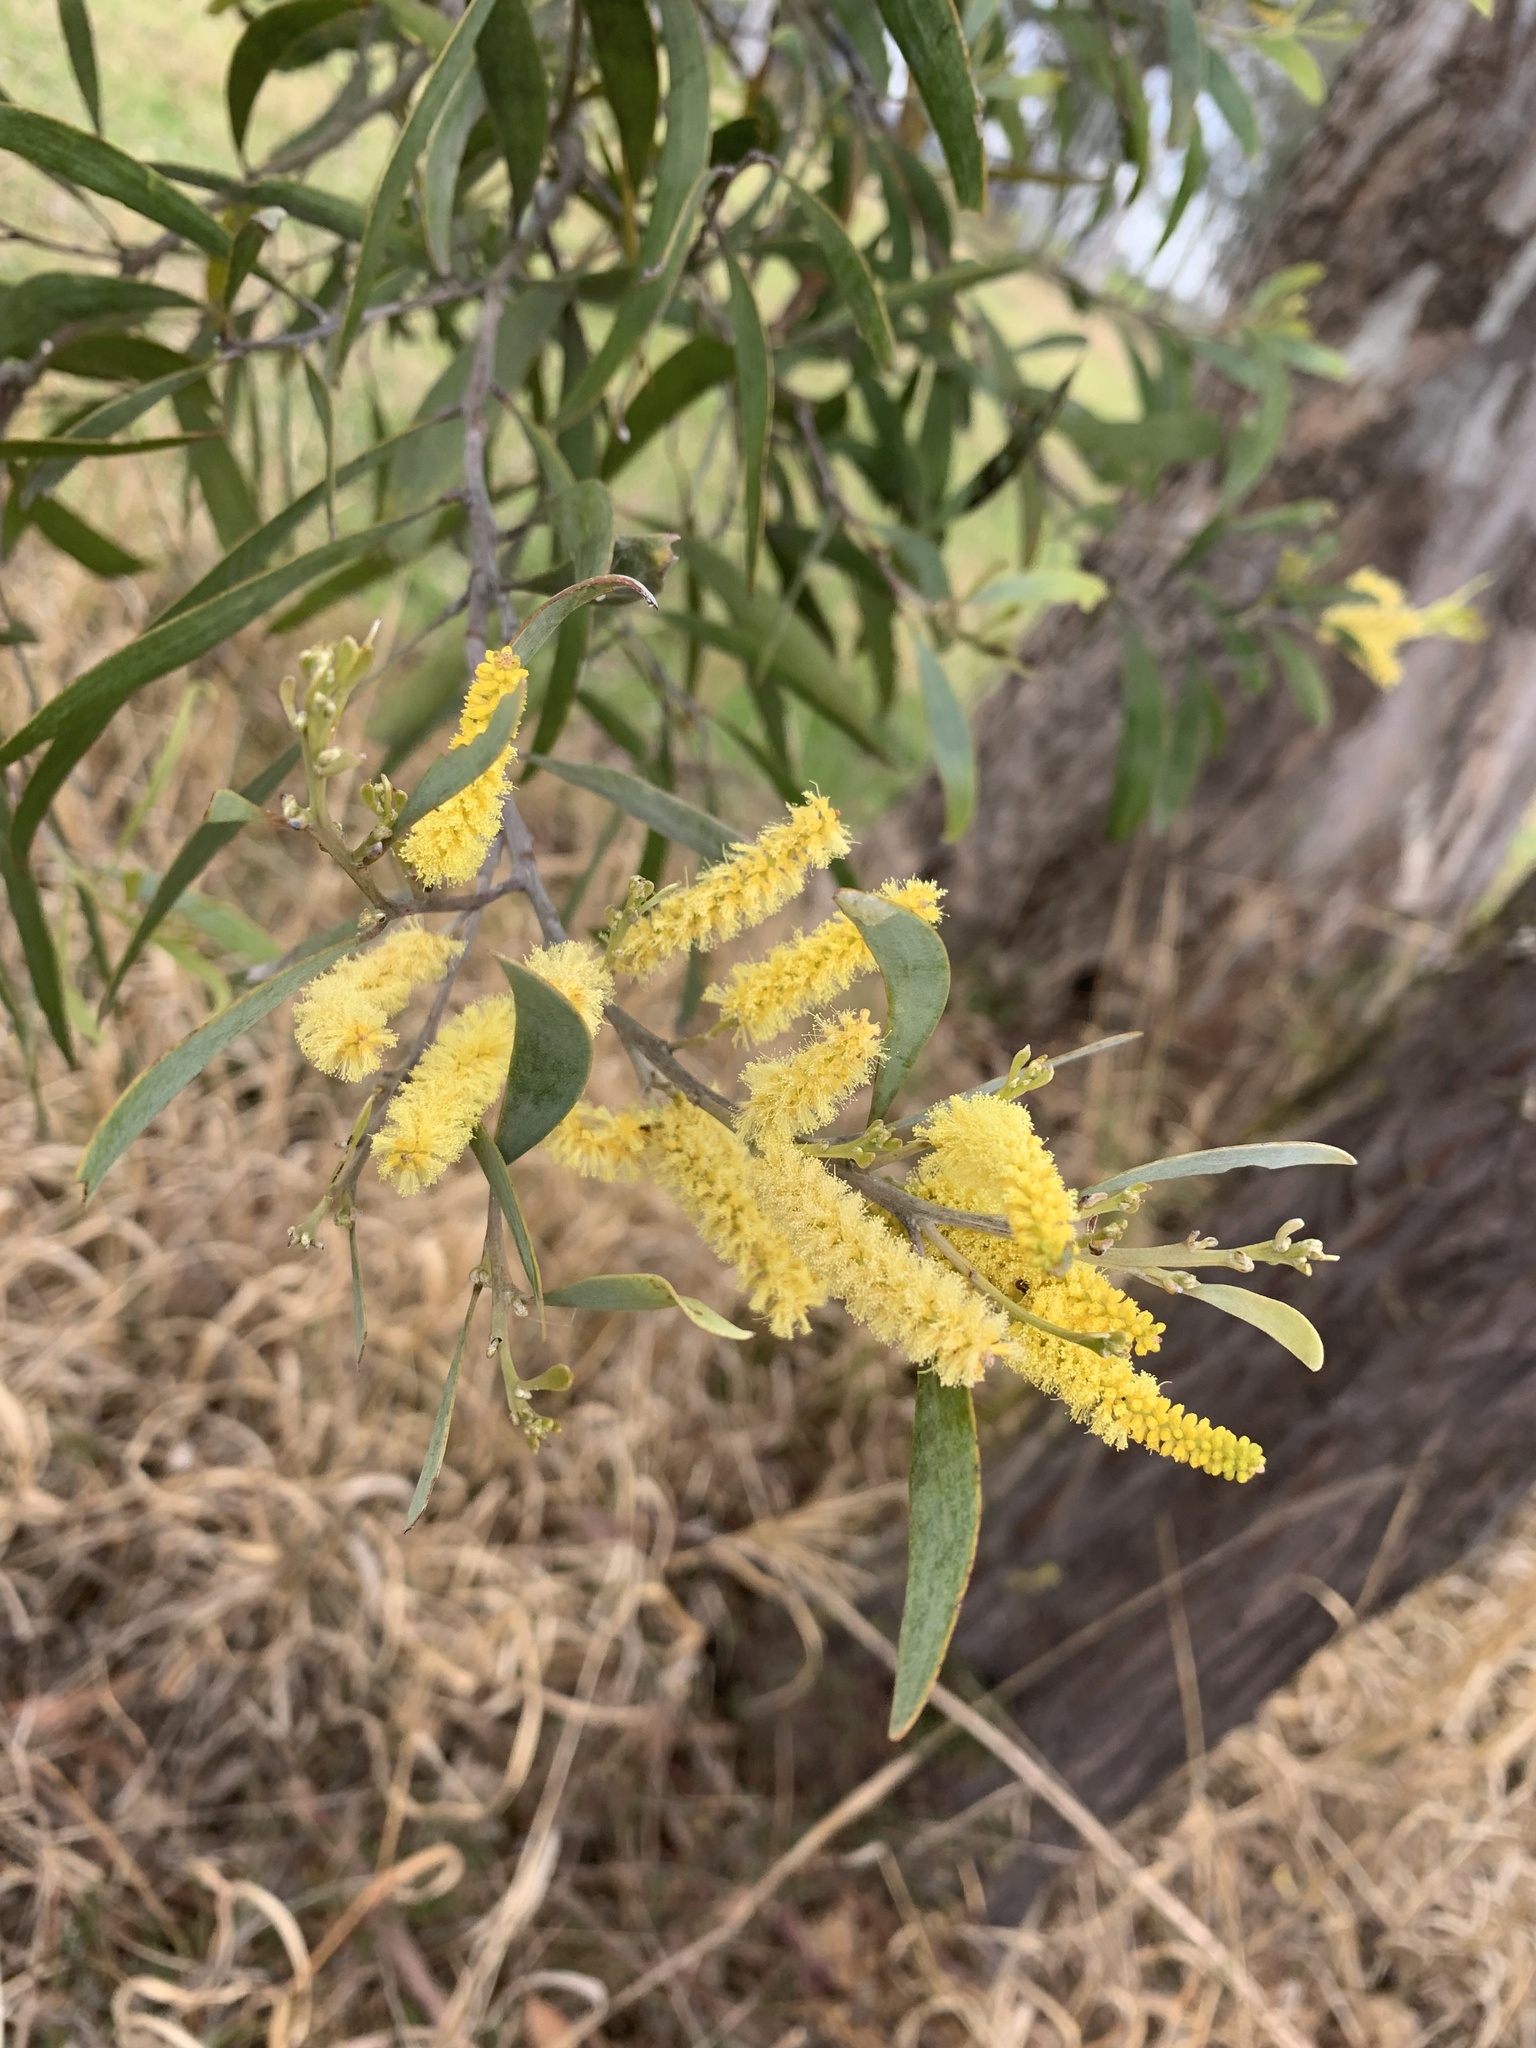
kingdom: Plantae
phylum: Tracheophyta
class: Magnoliopsida
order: Fabales
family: Fabaceae
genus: Acacia
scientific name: Acacia binervia
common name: Coast myall
